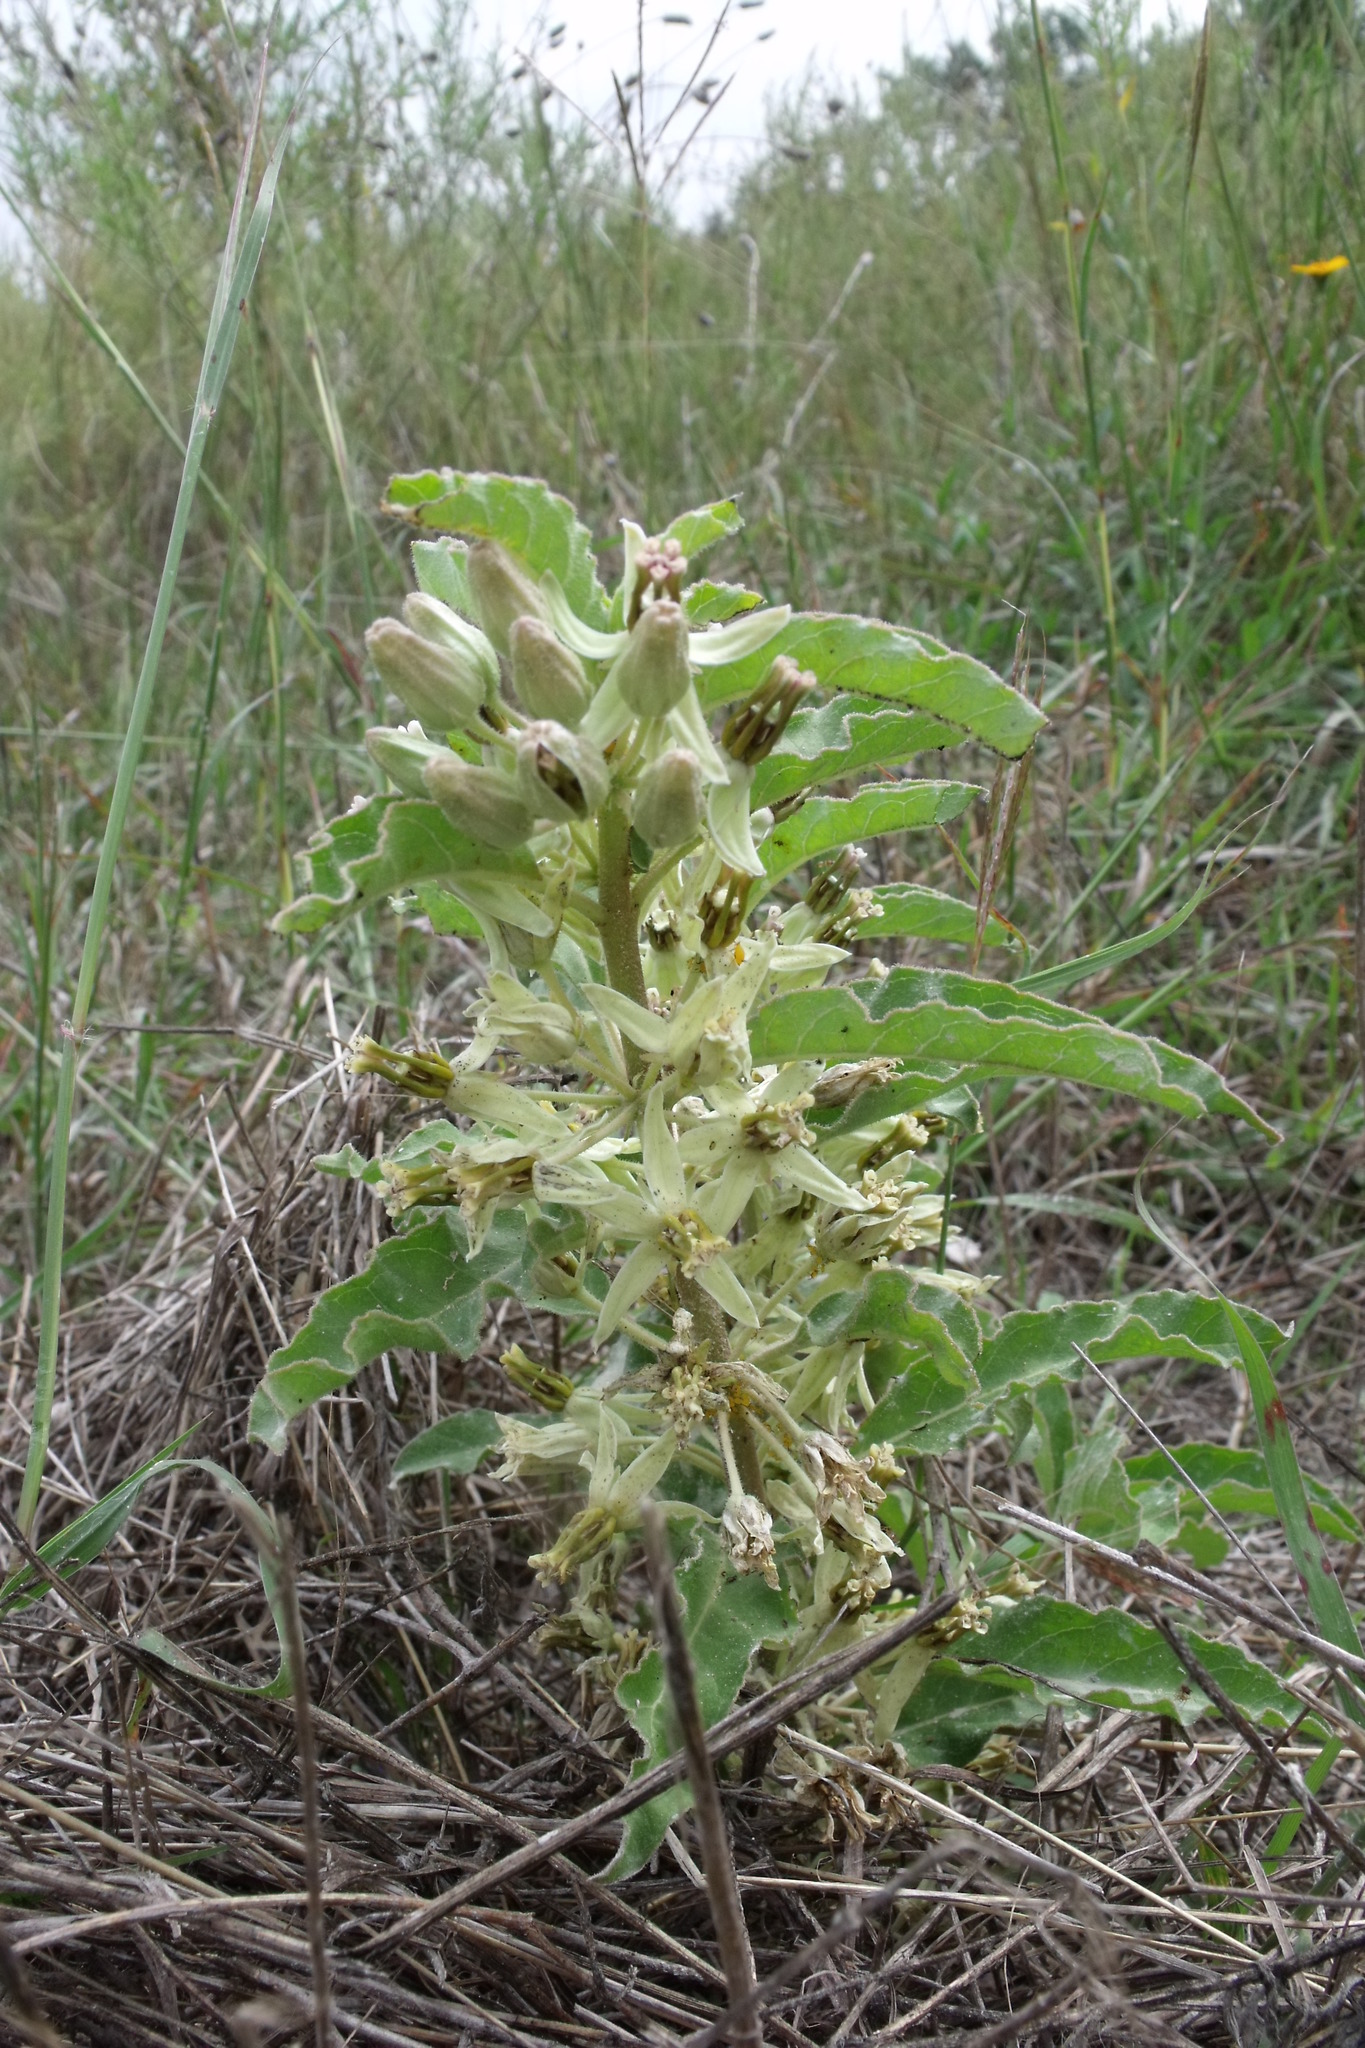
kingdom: Plantae
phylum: Tracheophyta
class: Magnoliopsida
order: Gentianales
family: Apocynaceae
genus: Asclepias
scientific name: Asclepias oenotheroides
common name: Zizotes milkweed
